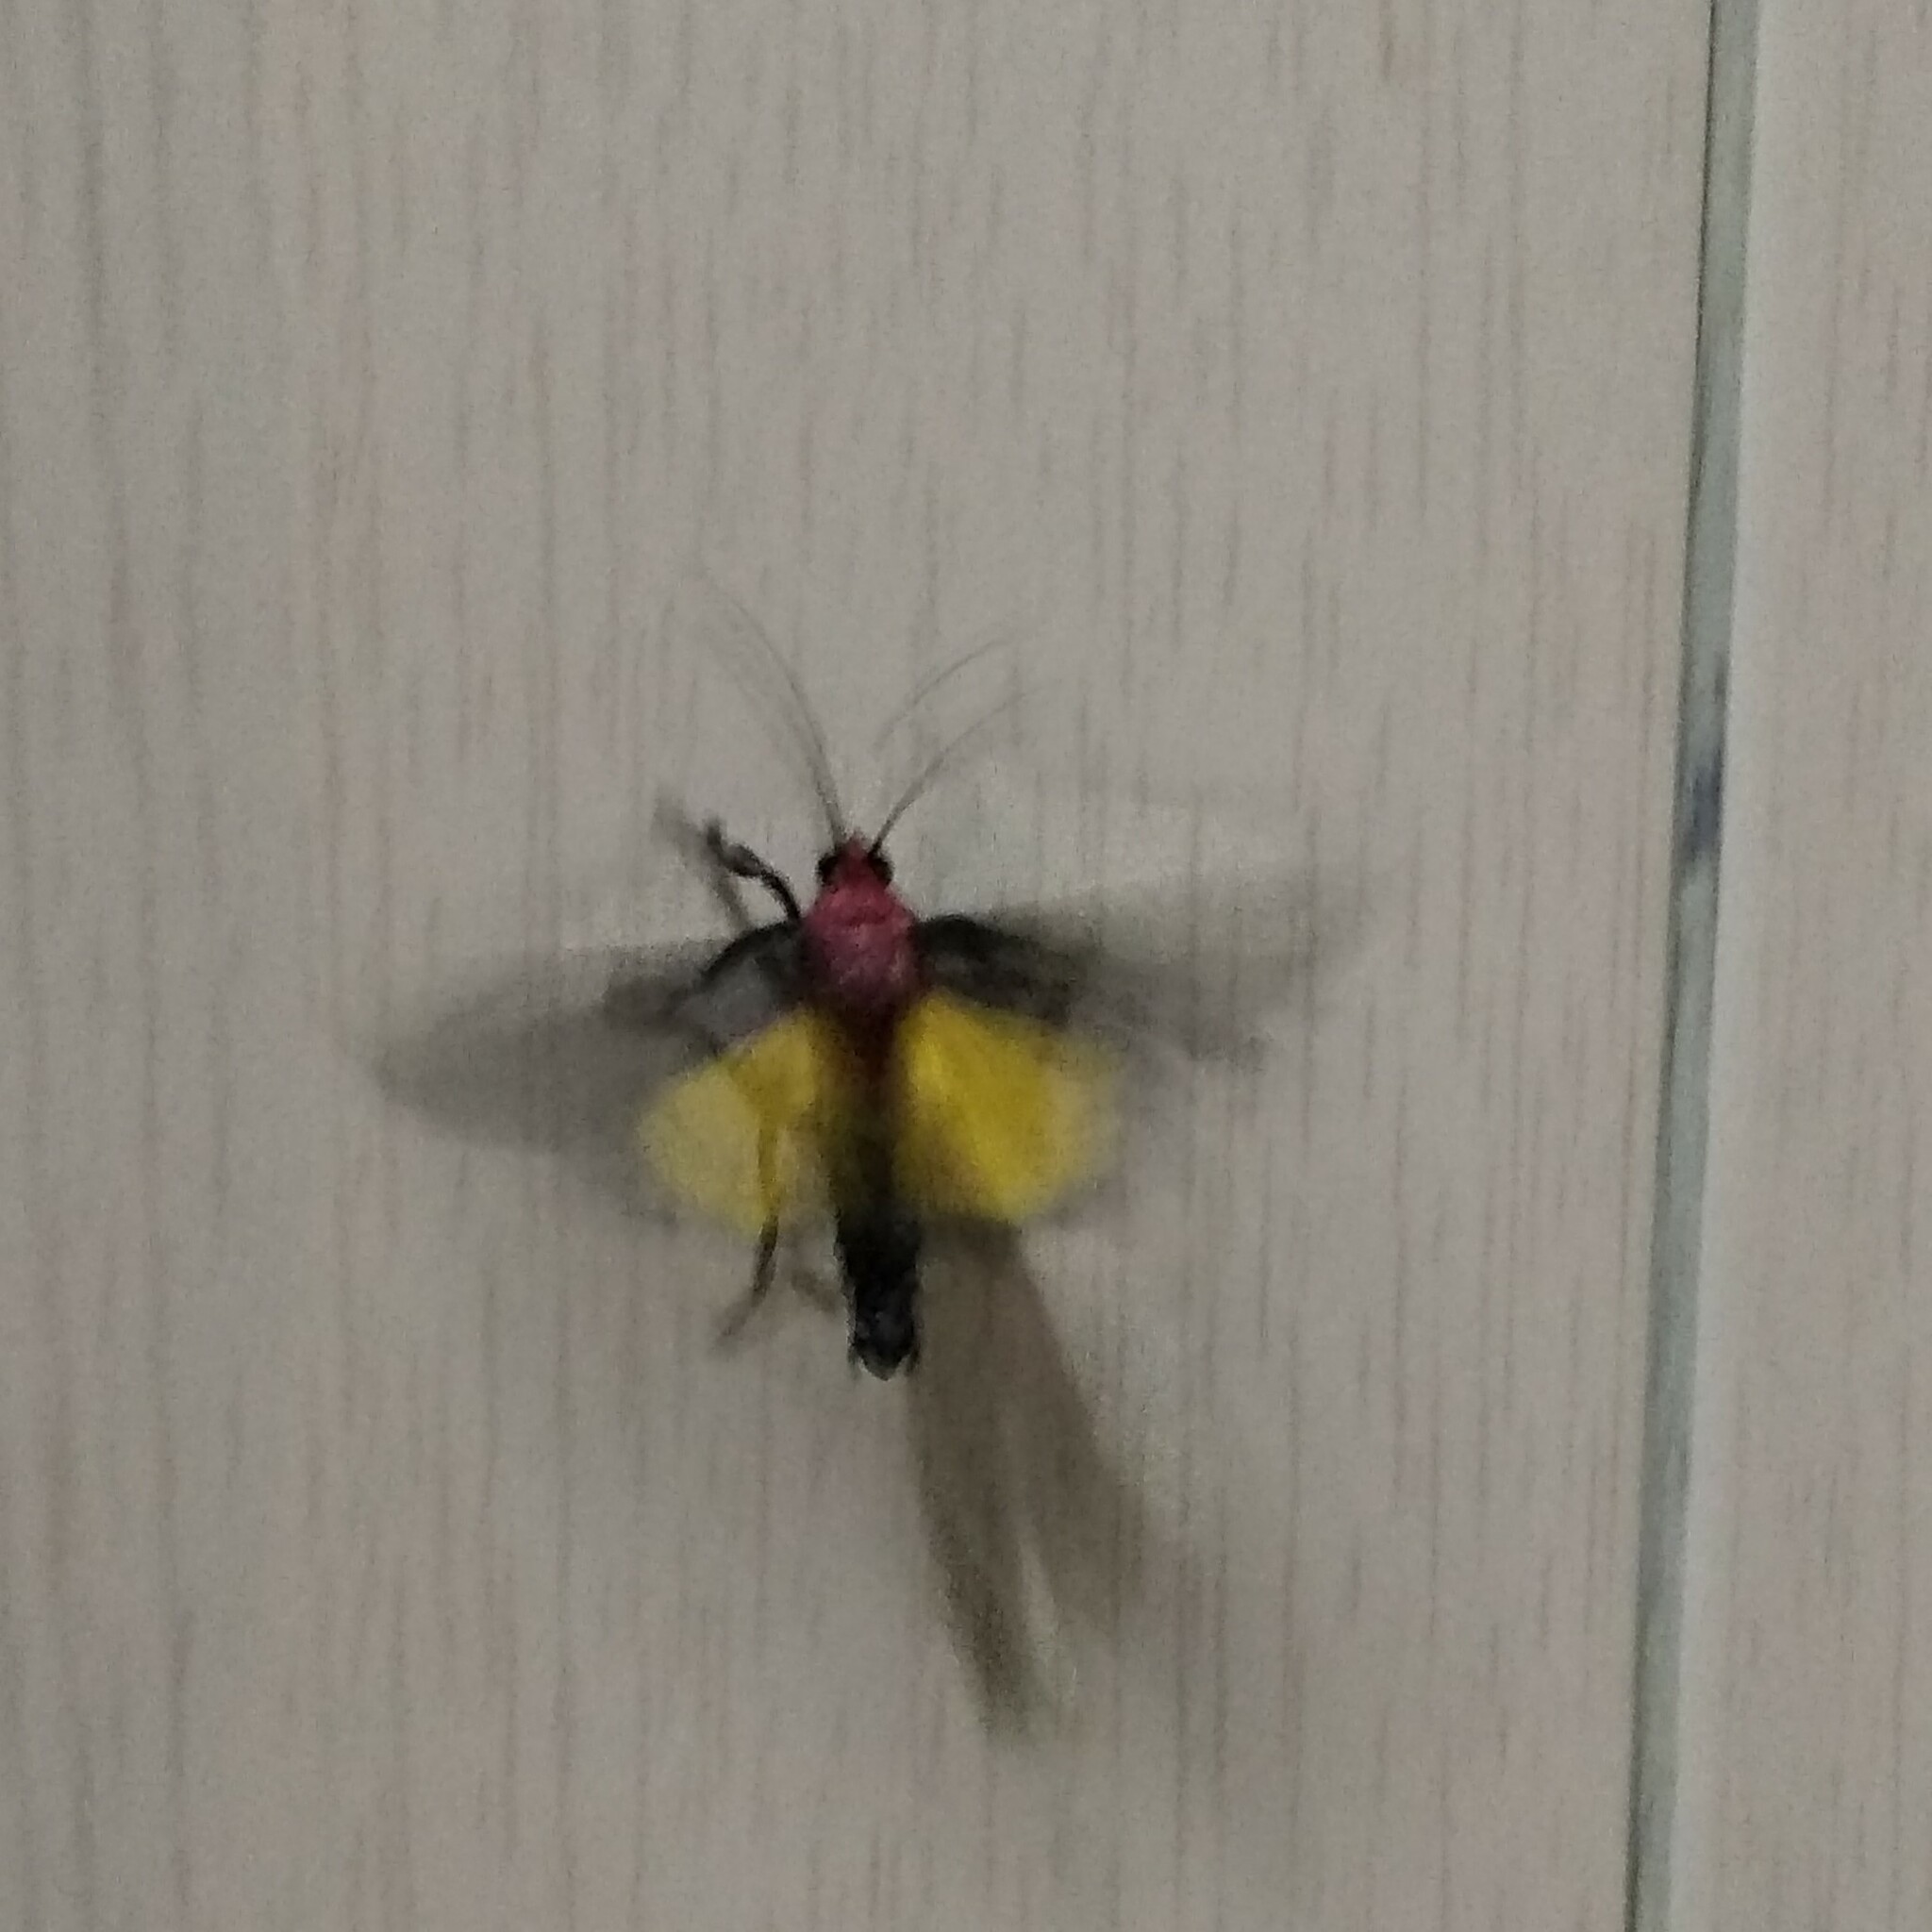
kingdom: Animalia
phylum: Arthropoda
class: Insecta
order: Lepidoptera
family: Pyralidae
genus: Toccolosida
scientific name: Toccolosida rubriceps
